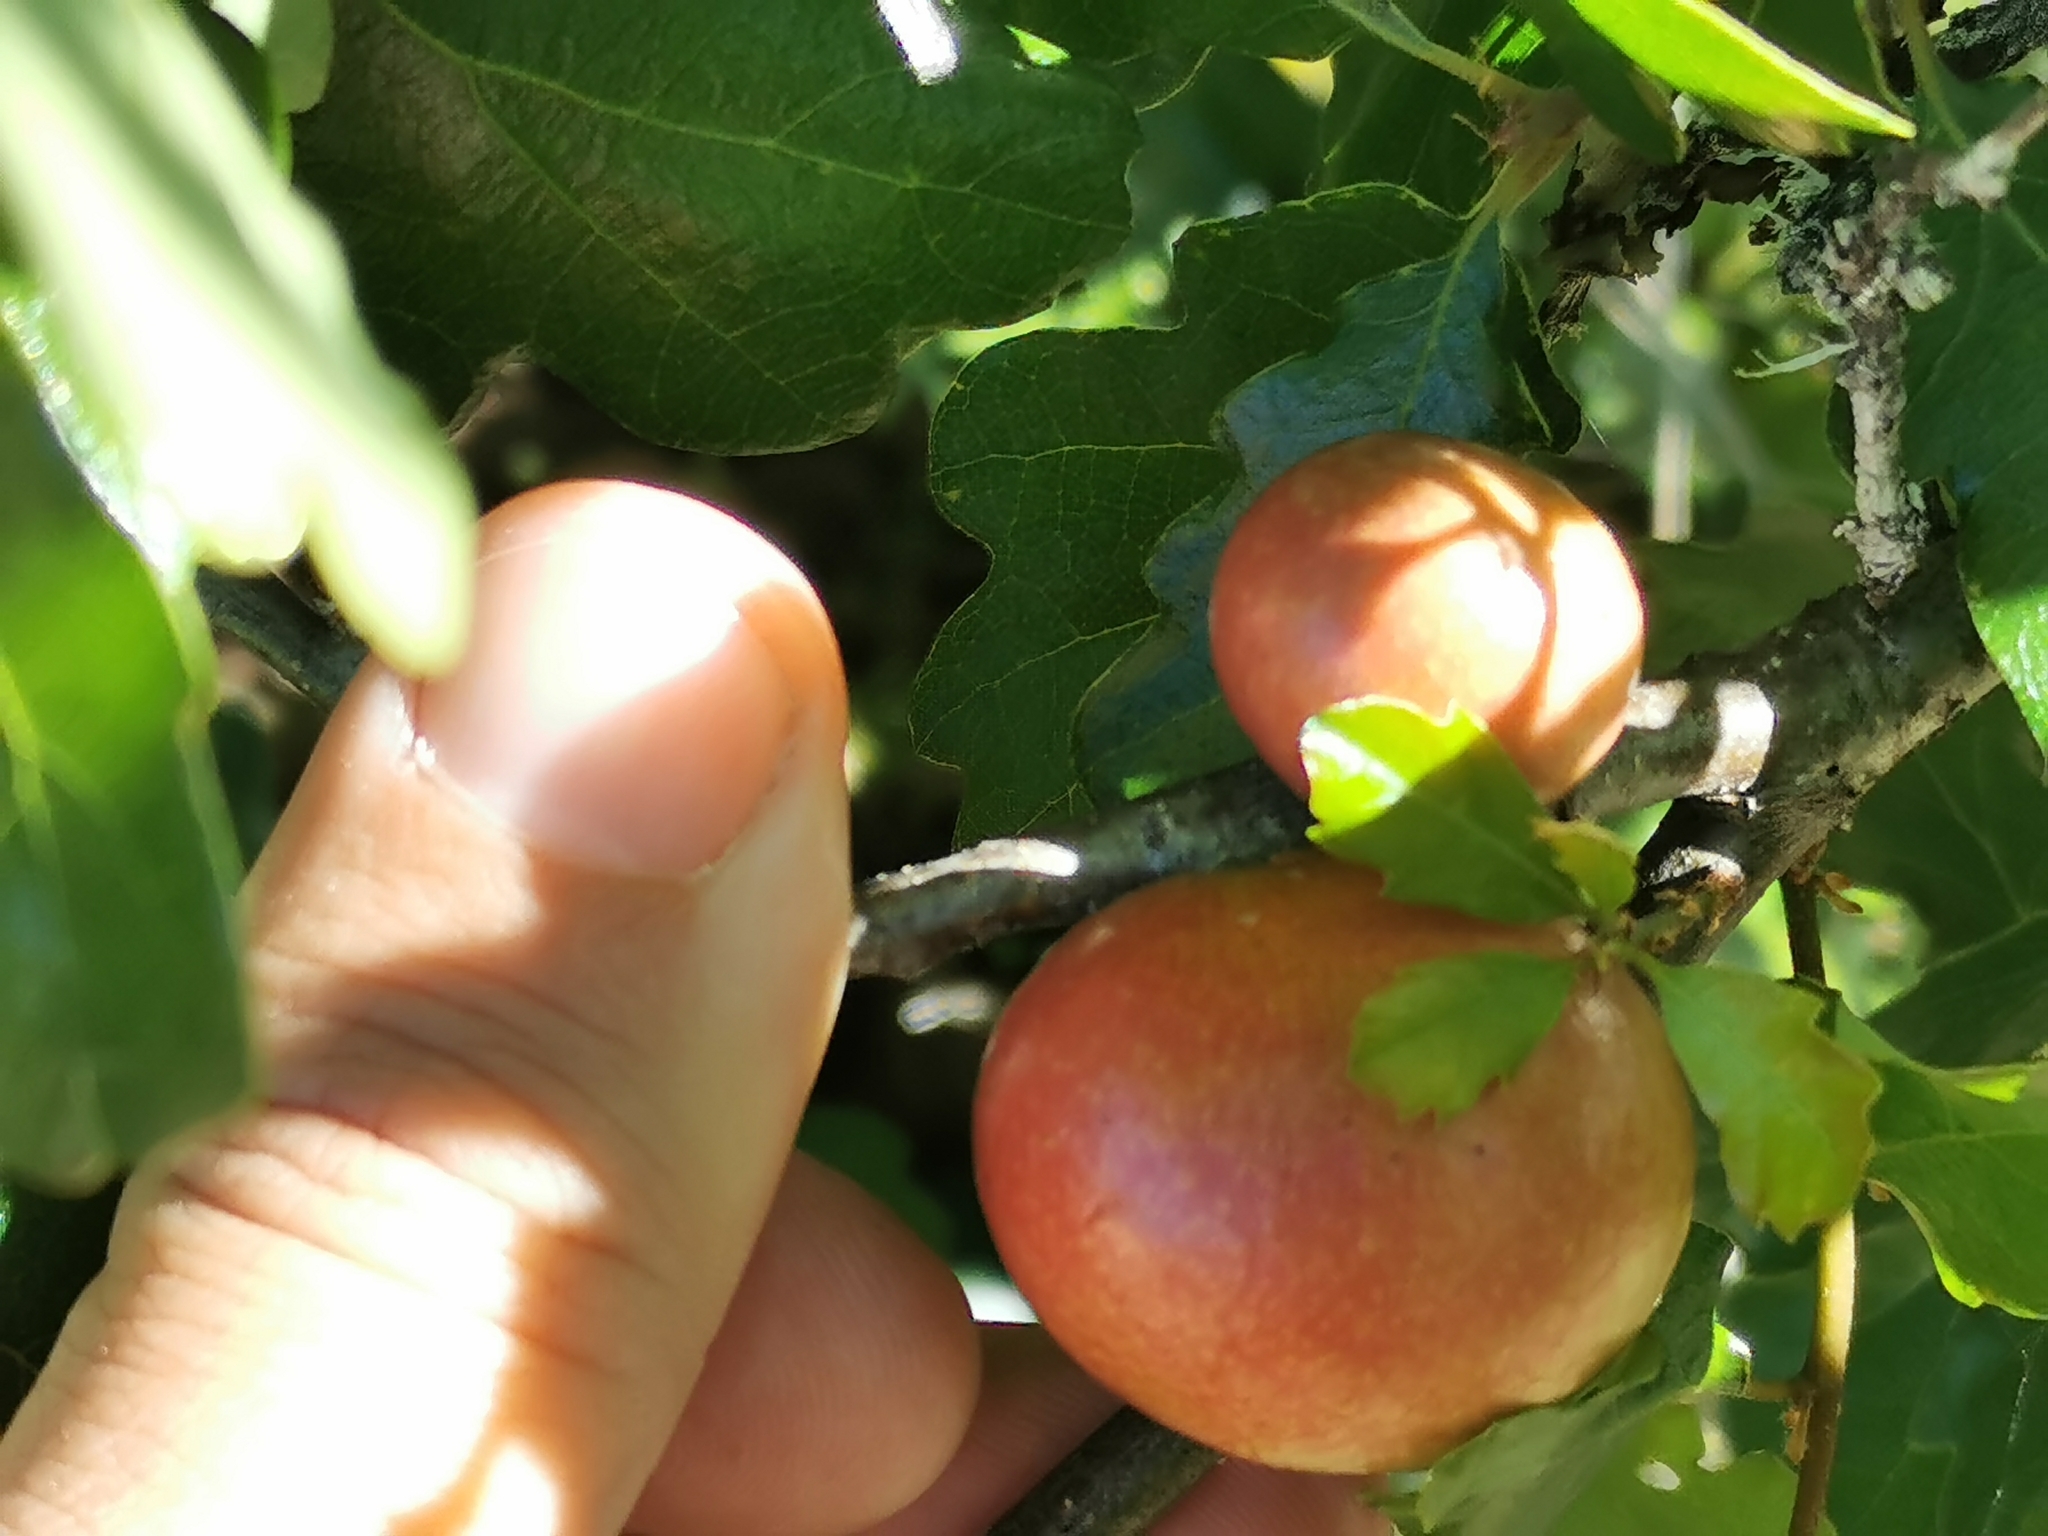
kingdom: Animalia
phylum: Arthropoda
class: Insecta
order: Hymenoptera
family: Cynipidae
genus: Andricus
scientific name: Andricus quercuscalifornicus
